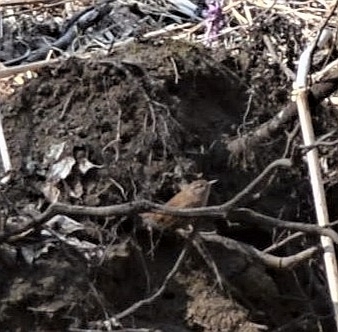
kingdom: Animalia
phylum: Chordata
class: Aves
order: Passeriformes
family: Troglodytidae
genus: Troglodytes
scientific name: Troglodytes troglodytes
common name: Eurasian wren
